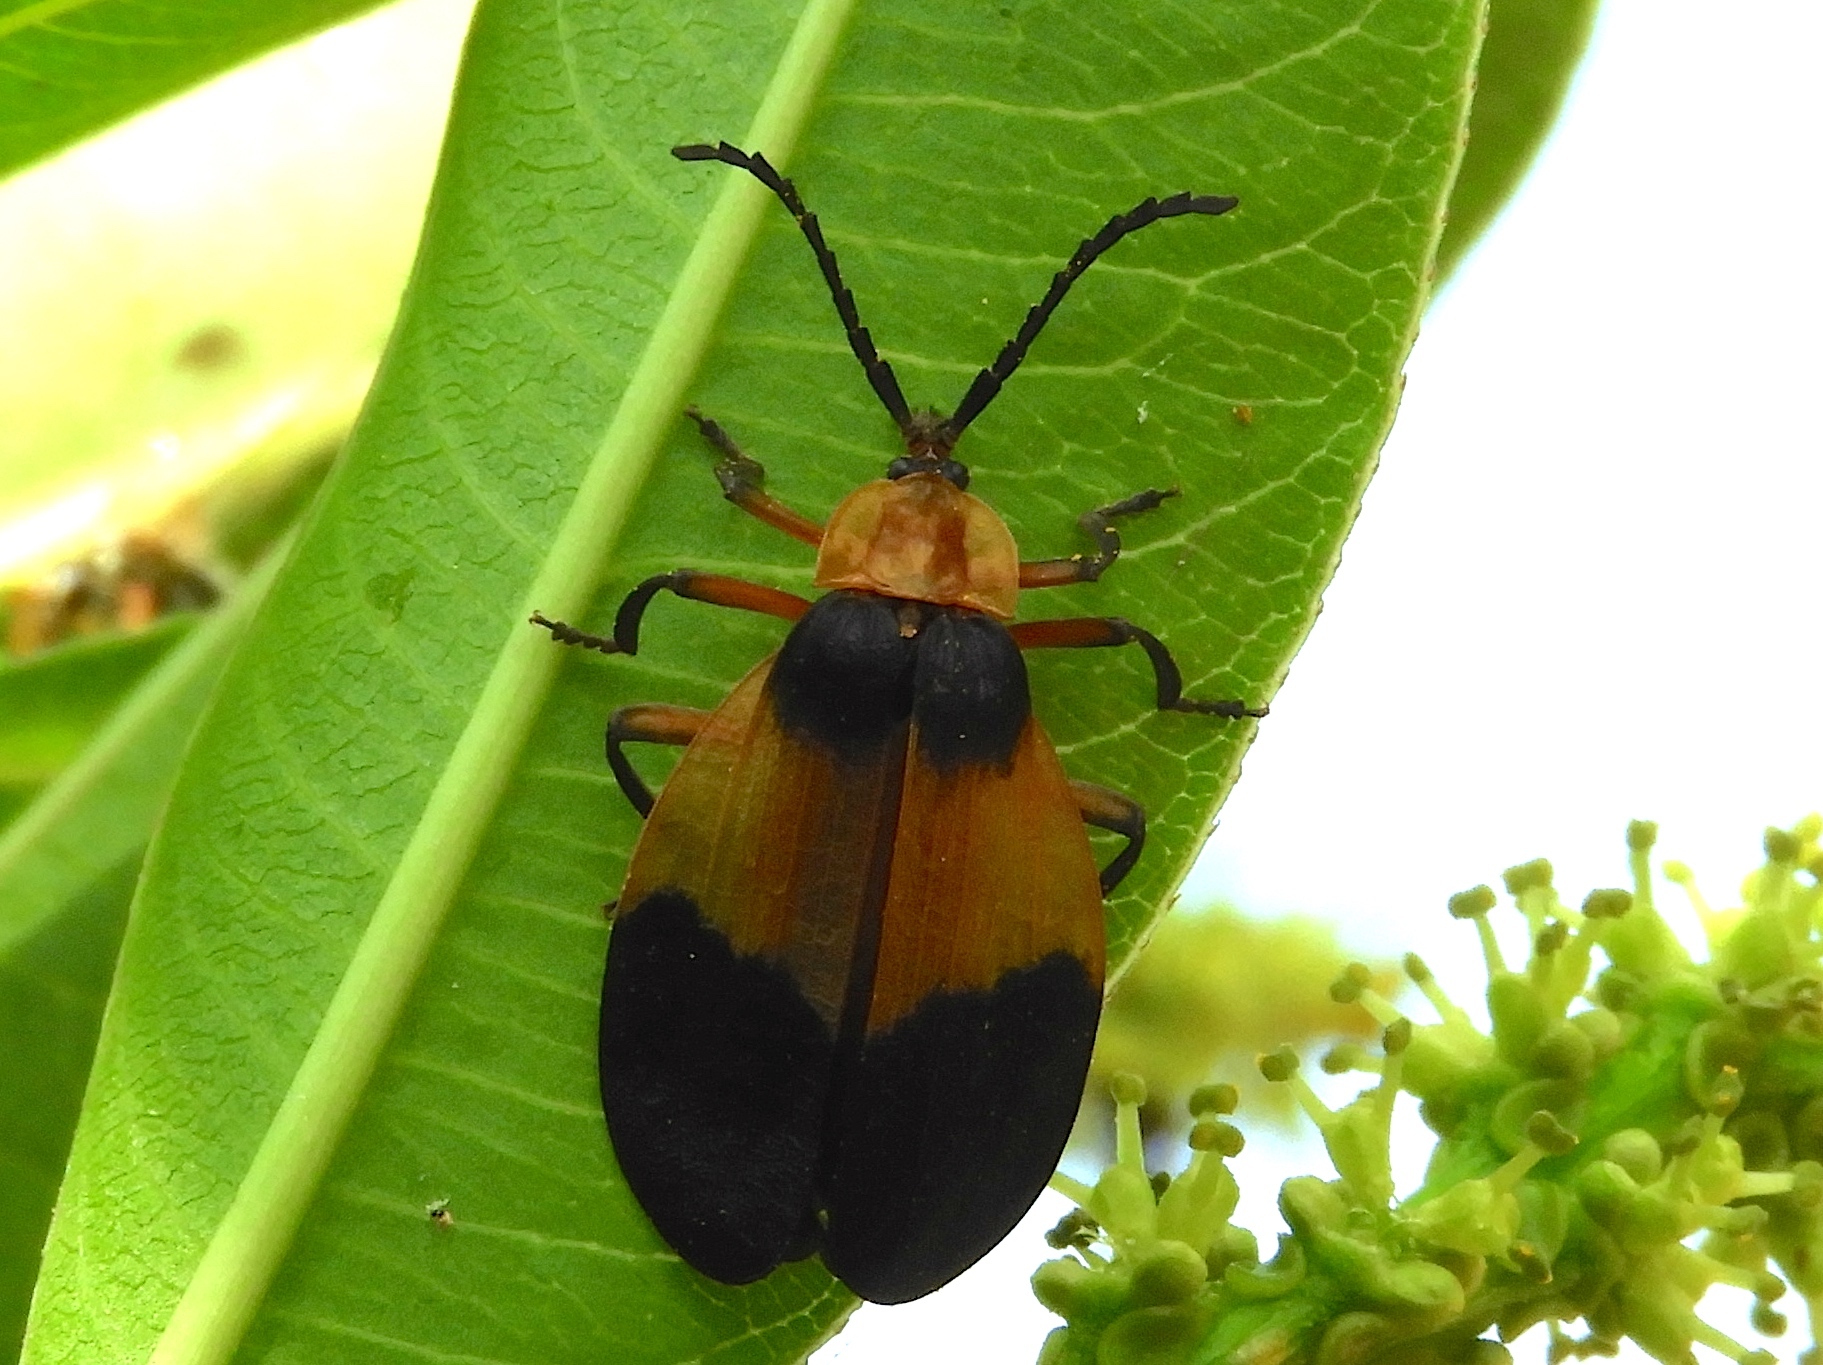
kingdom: Animalia
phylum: Arthropoda
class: Insecta
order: Coleoptera
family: Lycidae
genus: Lycus
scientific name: Lycus
